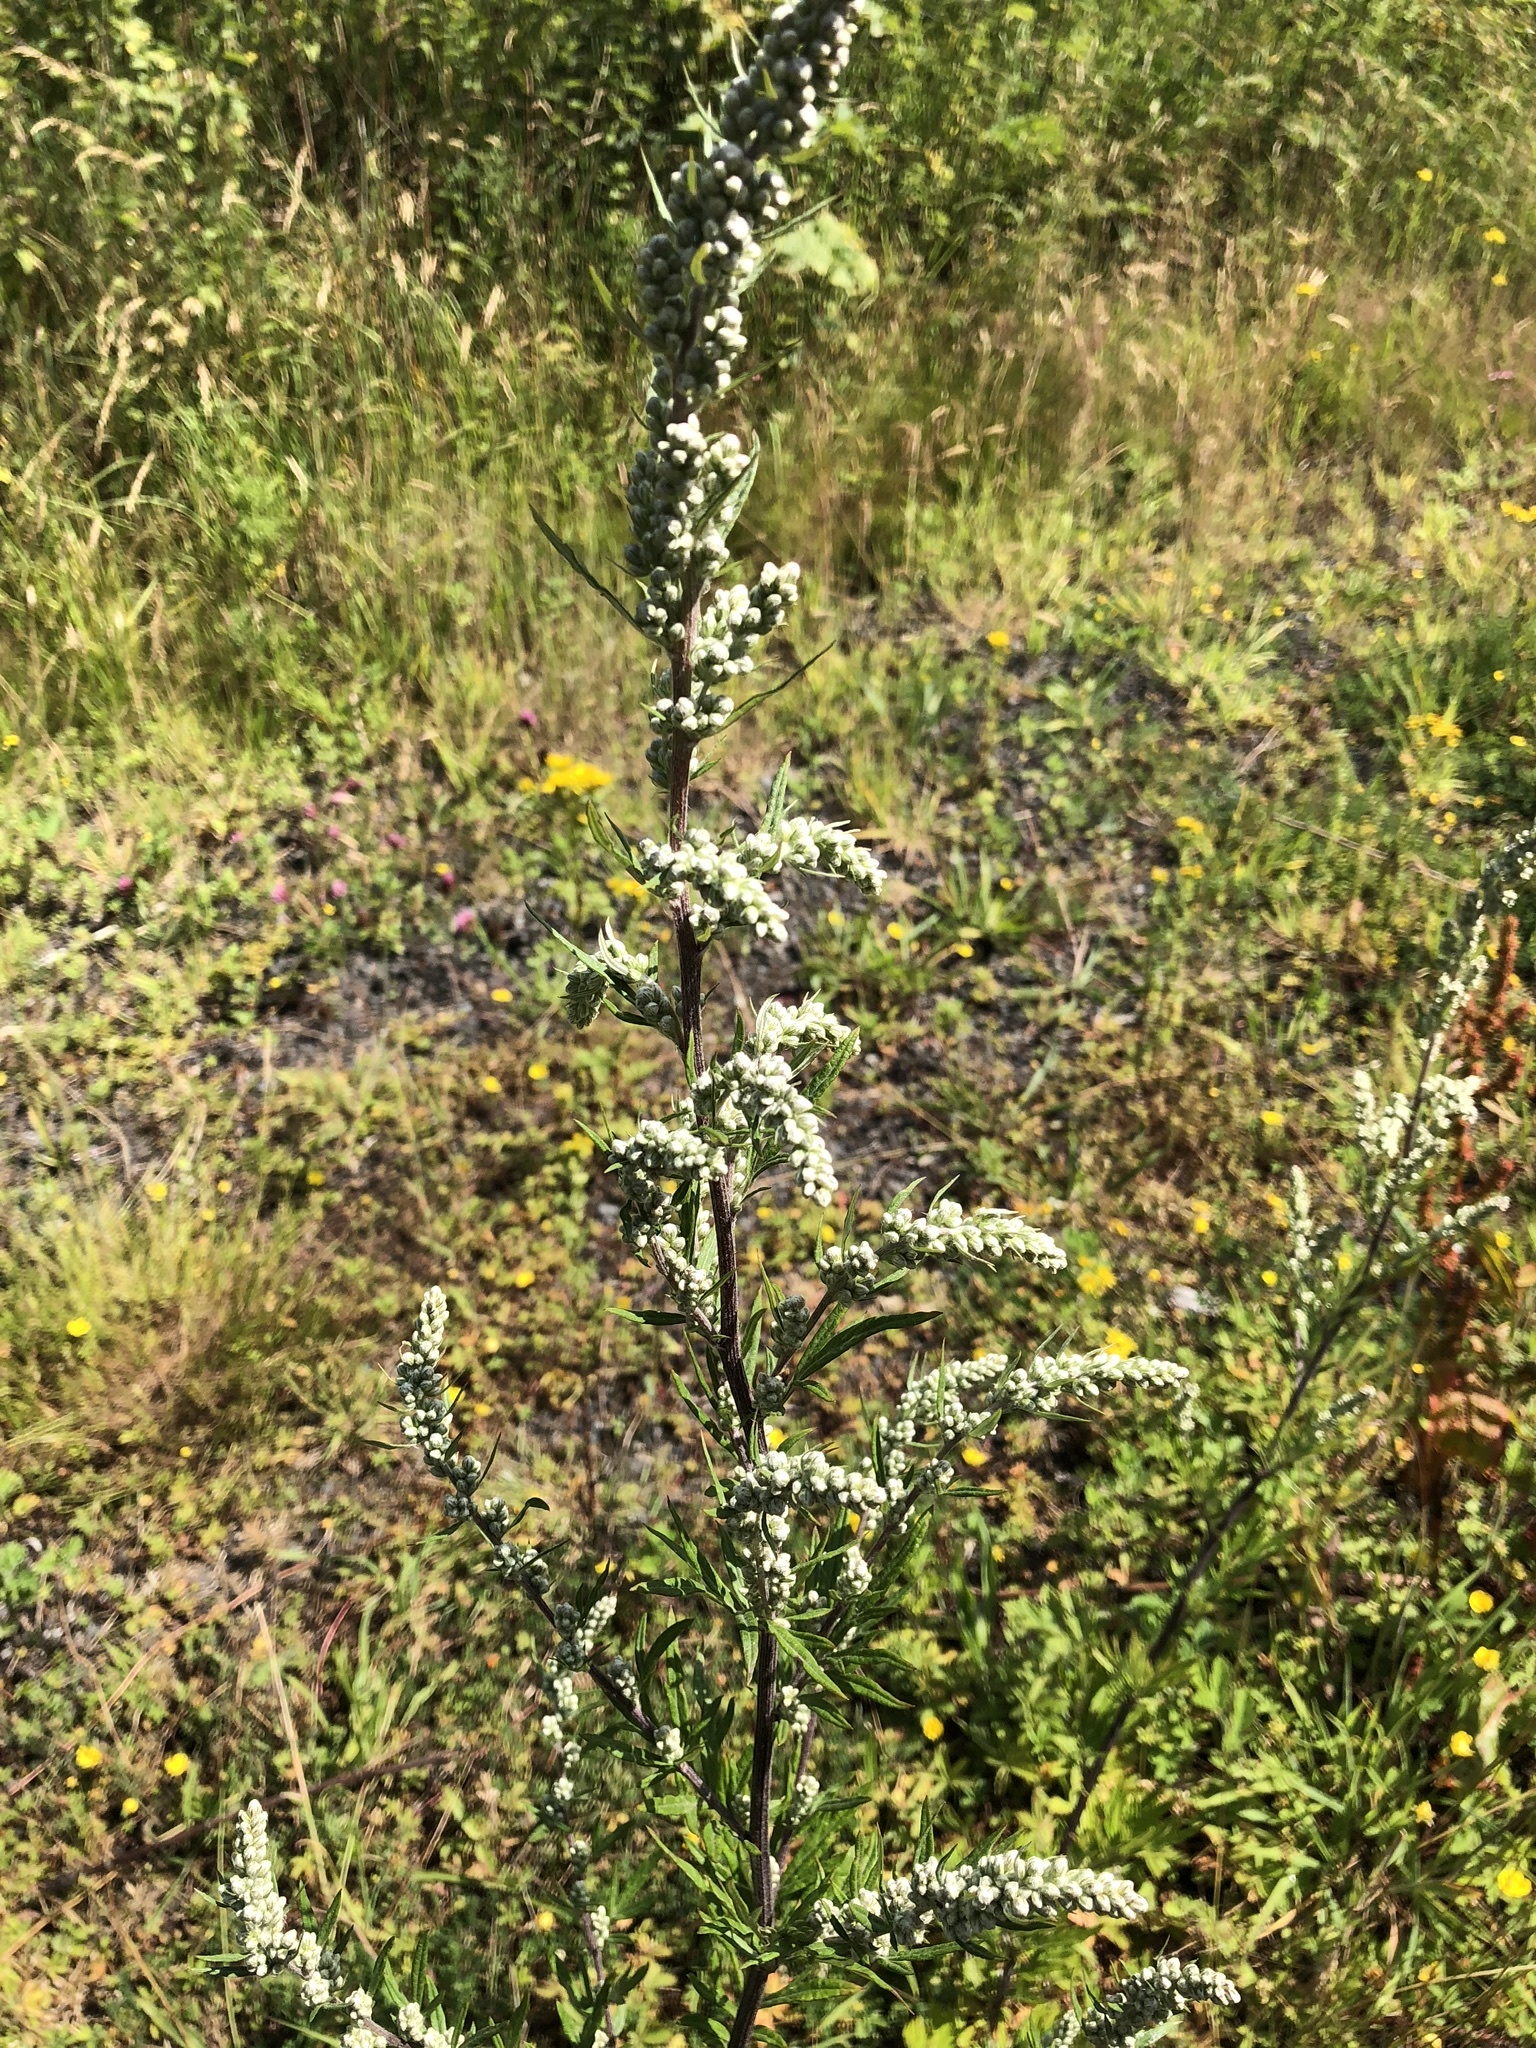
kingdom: Plantae
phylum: Tracheophyta
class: Magnoliopsida
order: Asterales
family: Asteraceae
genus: Artemisia
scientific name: Artemisia vulgaris
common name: Mugwort
